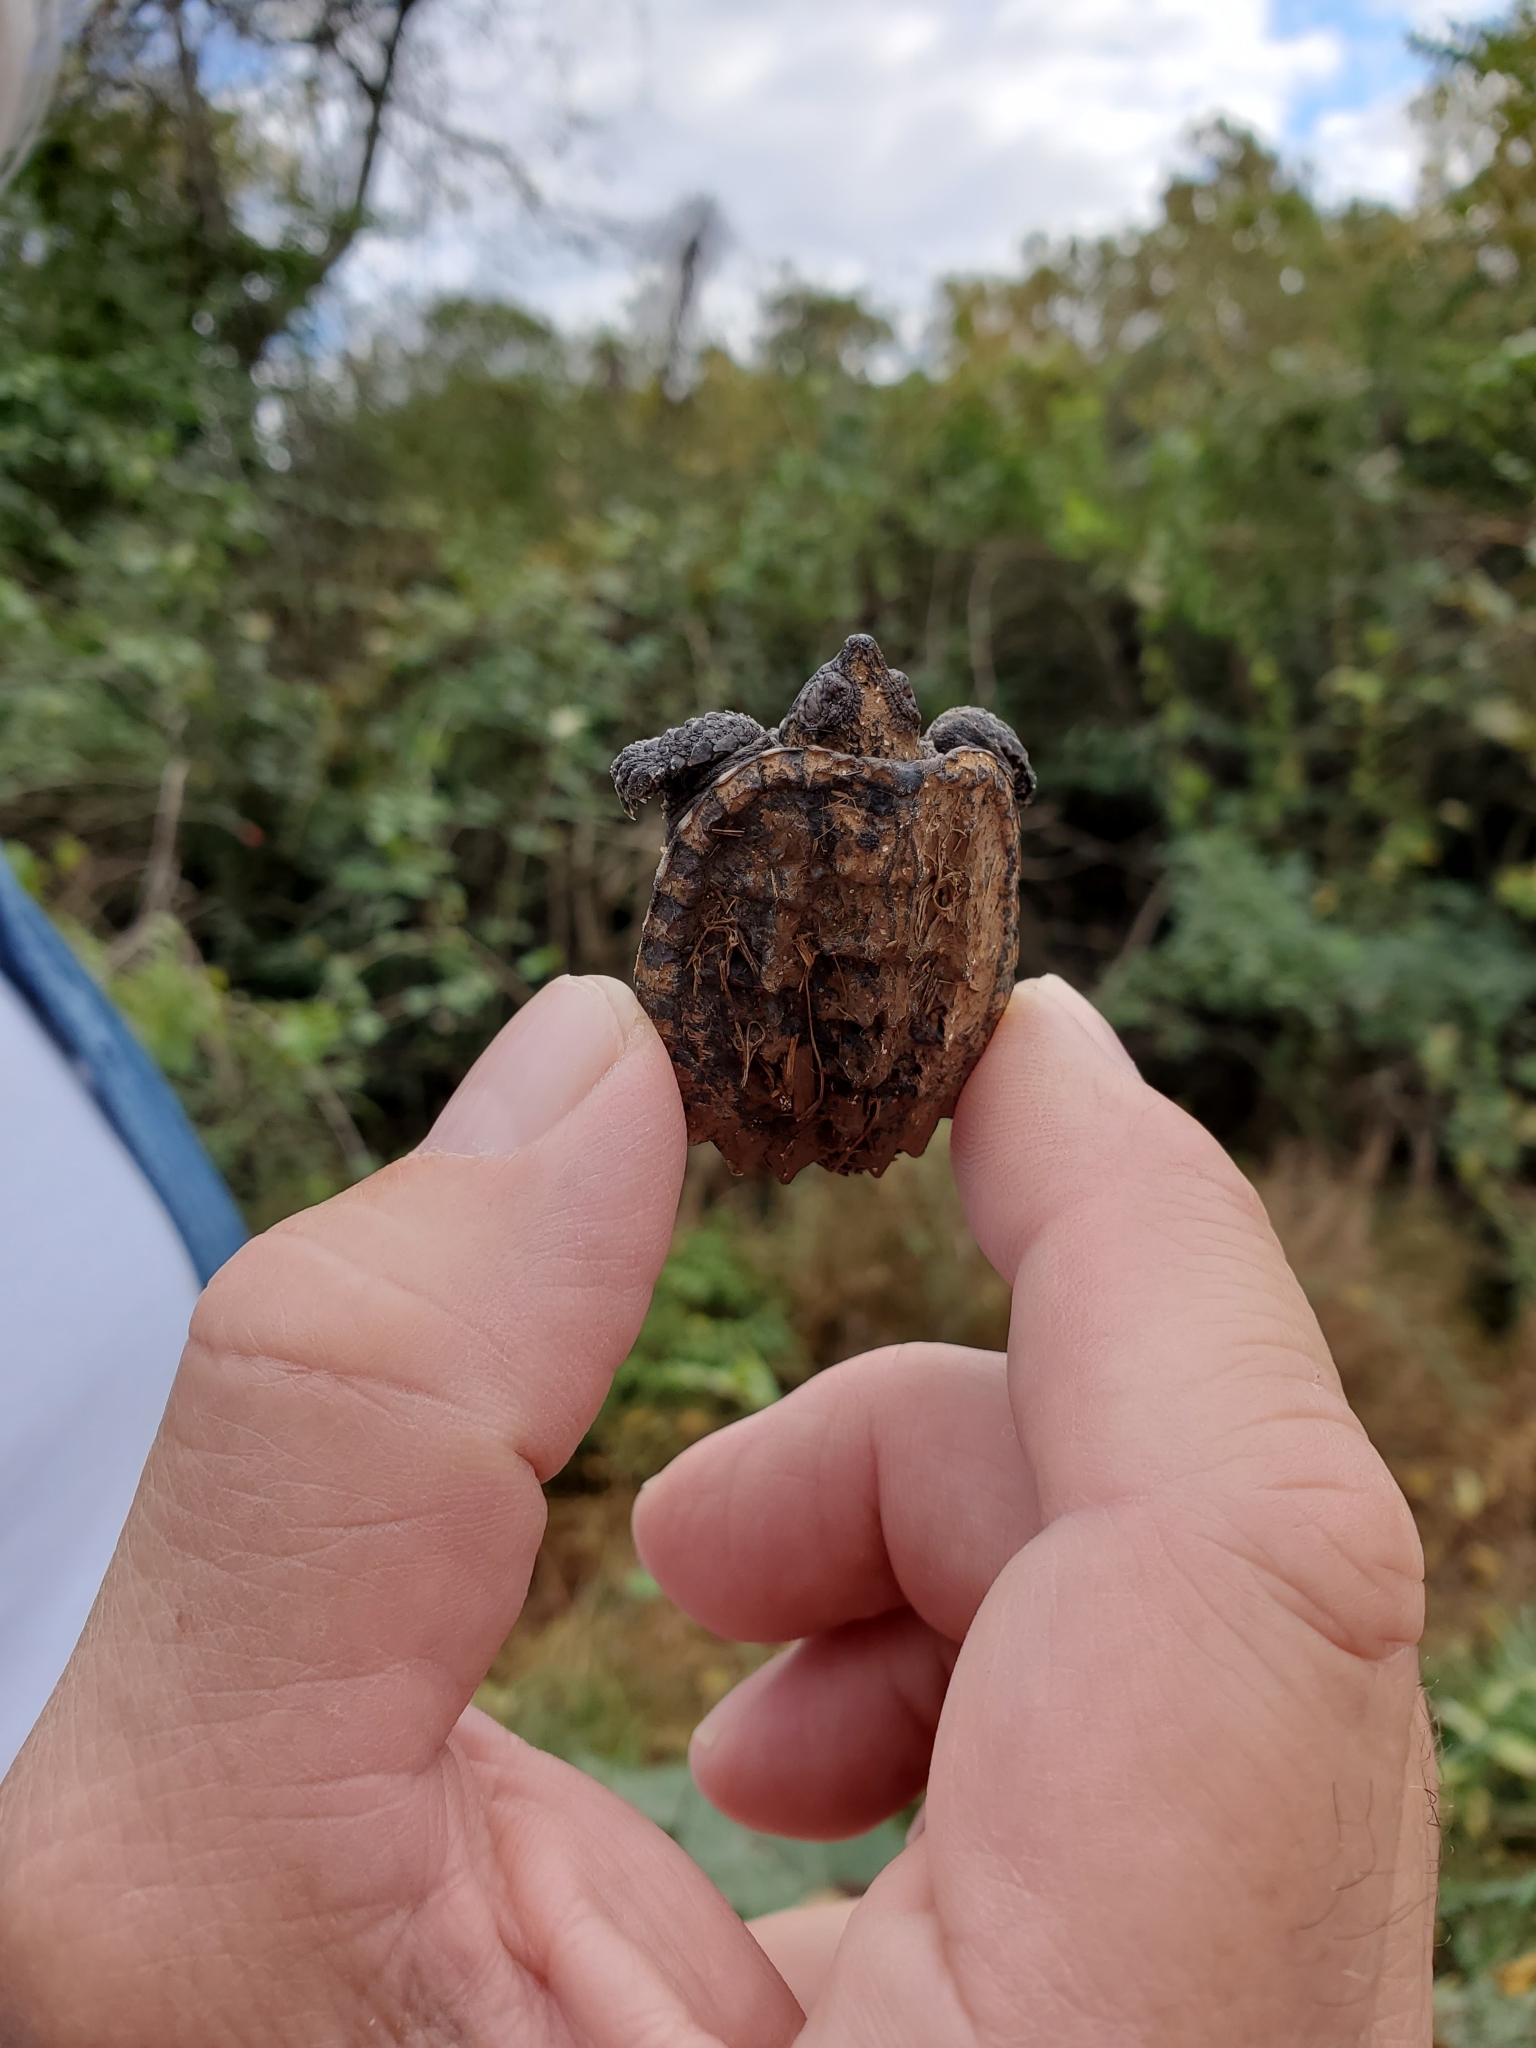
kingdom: Animalia
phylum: Chordata
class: Testudines
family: Chelydridae
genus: Chelydra
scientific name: Chelydra serpentina
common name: Common snapping turtle
